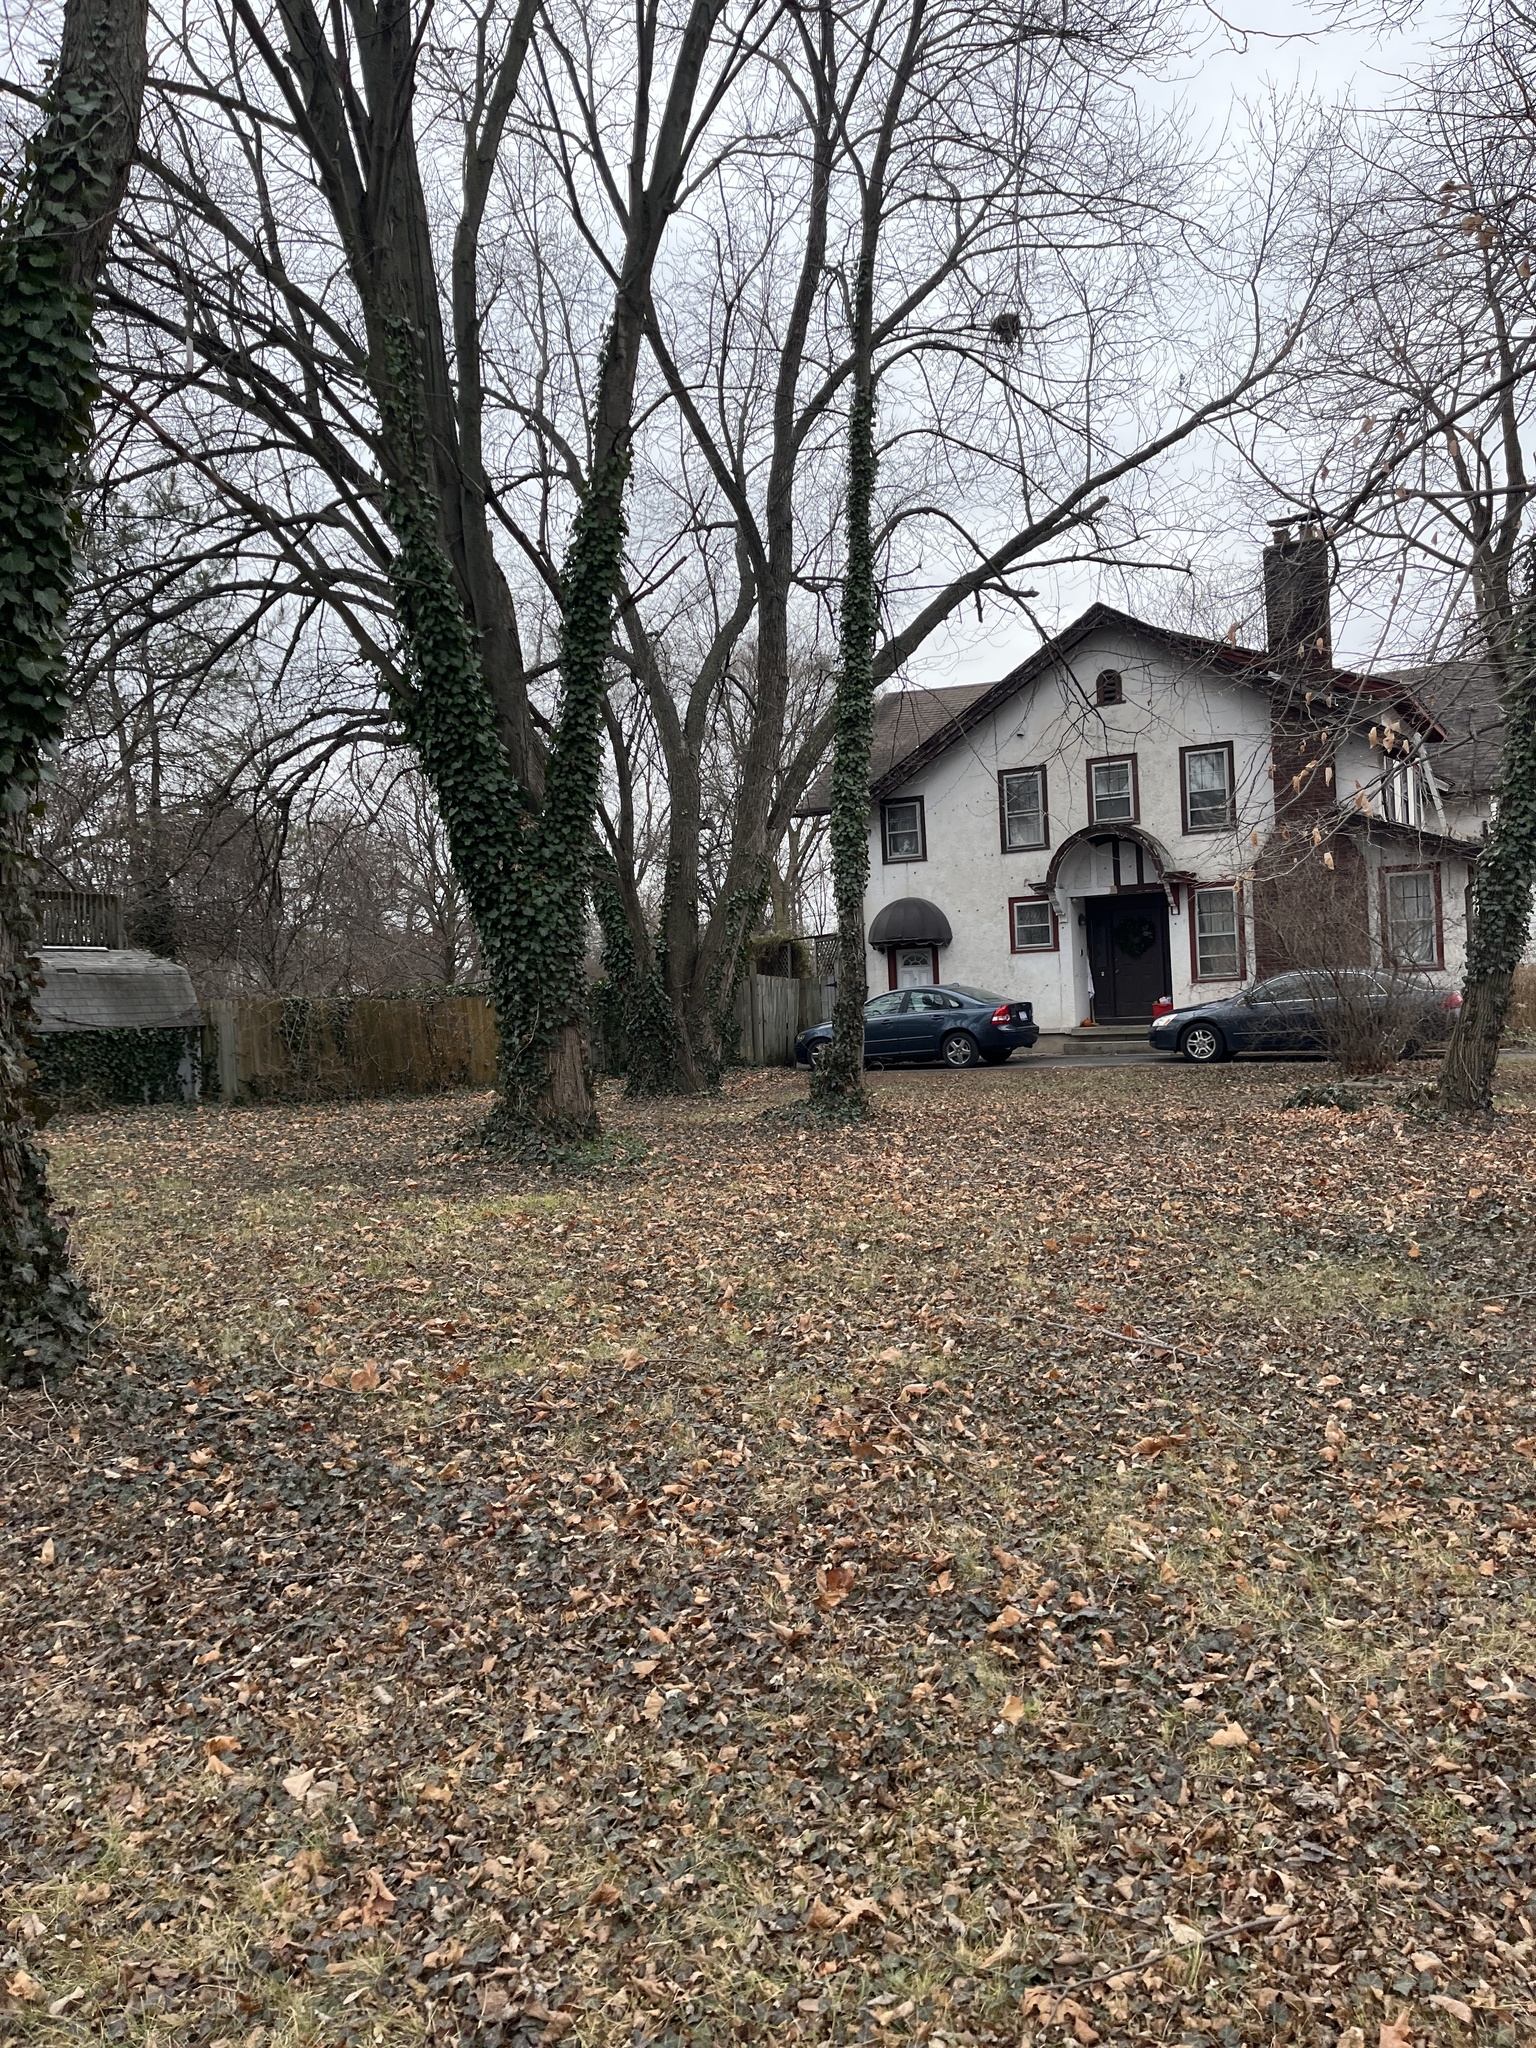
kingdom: Plantae
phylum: Tracheophyta
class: Magnoliopsida
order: Apiales
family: Araliaceae
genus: Hedera
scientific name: Hedera helix
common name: Ivy
